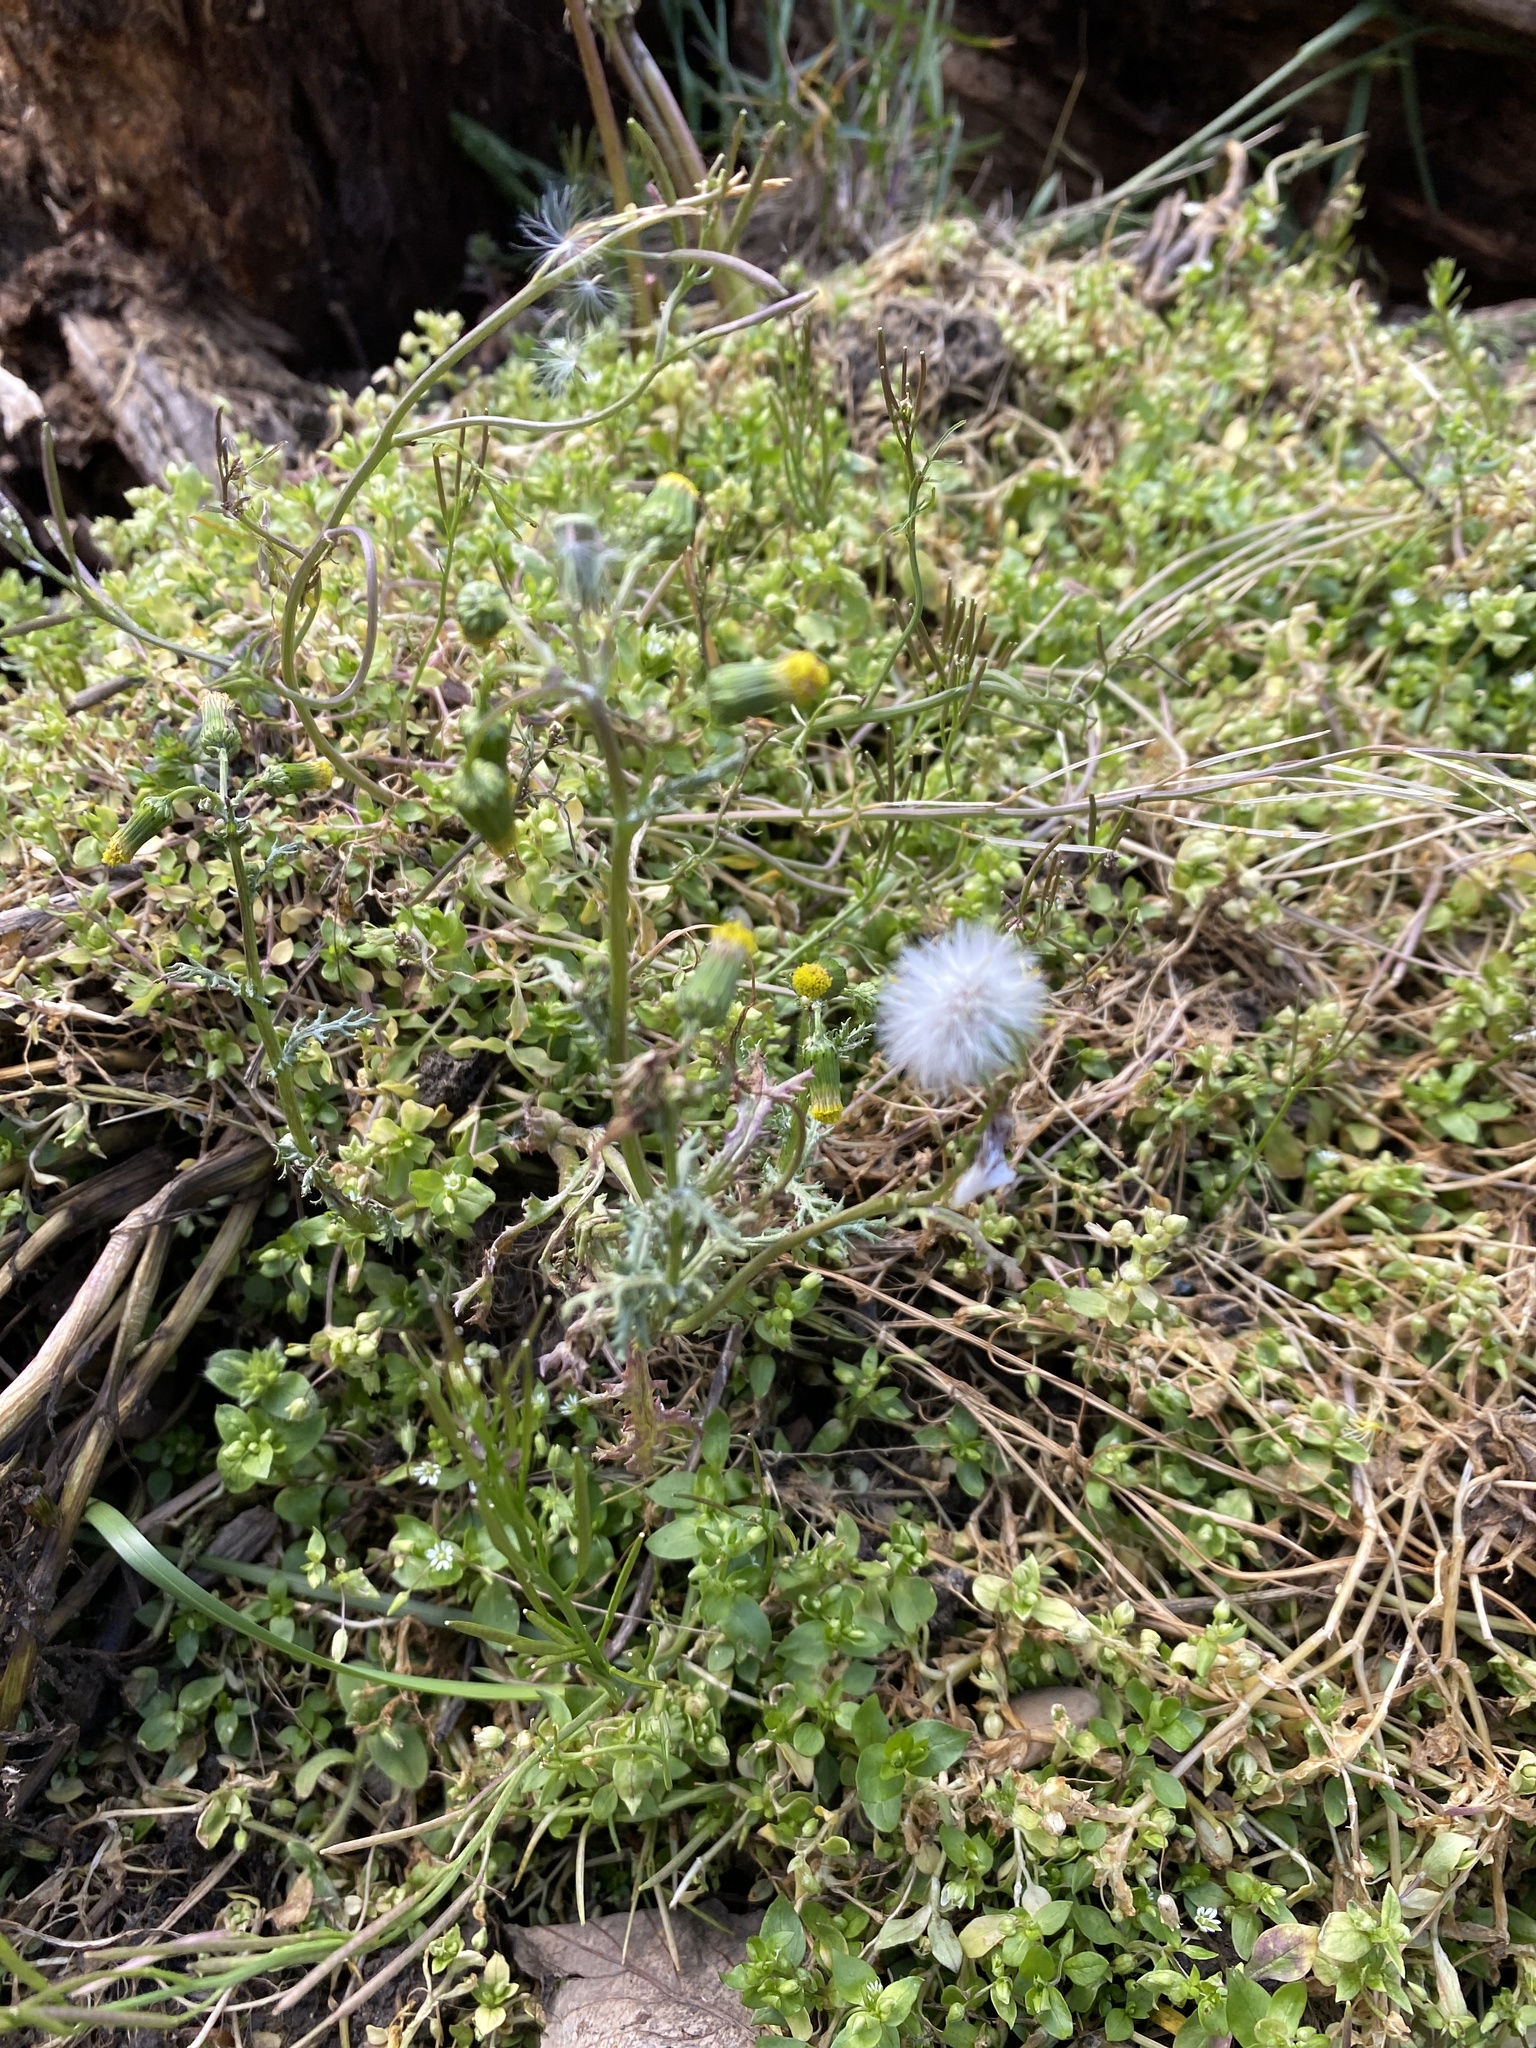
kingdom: Plantae
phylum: Tracheophyta
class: Magnoliopsida
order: Asterales
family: Asteraceae
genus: Senecio
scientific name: Senecio vulgaris
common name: Old-man-in-the-spring
